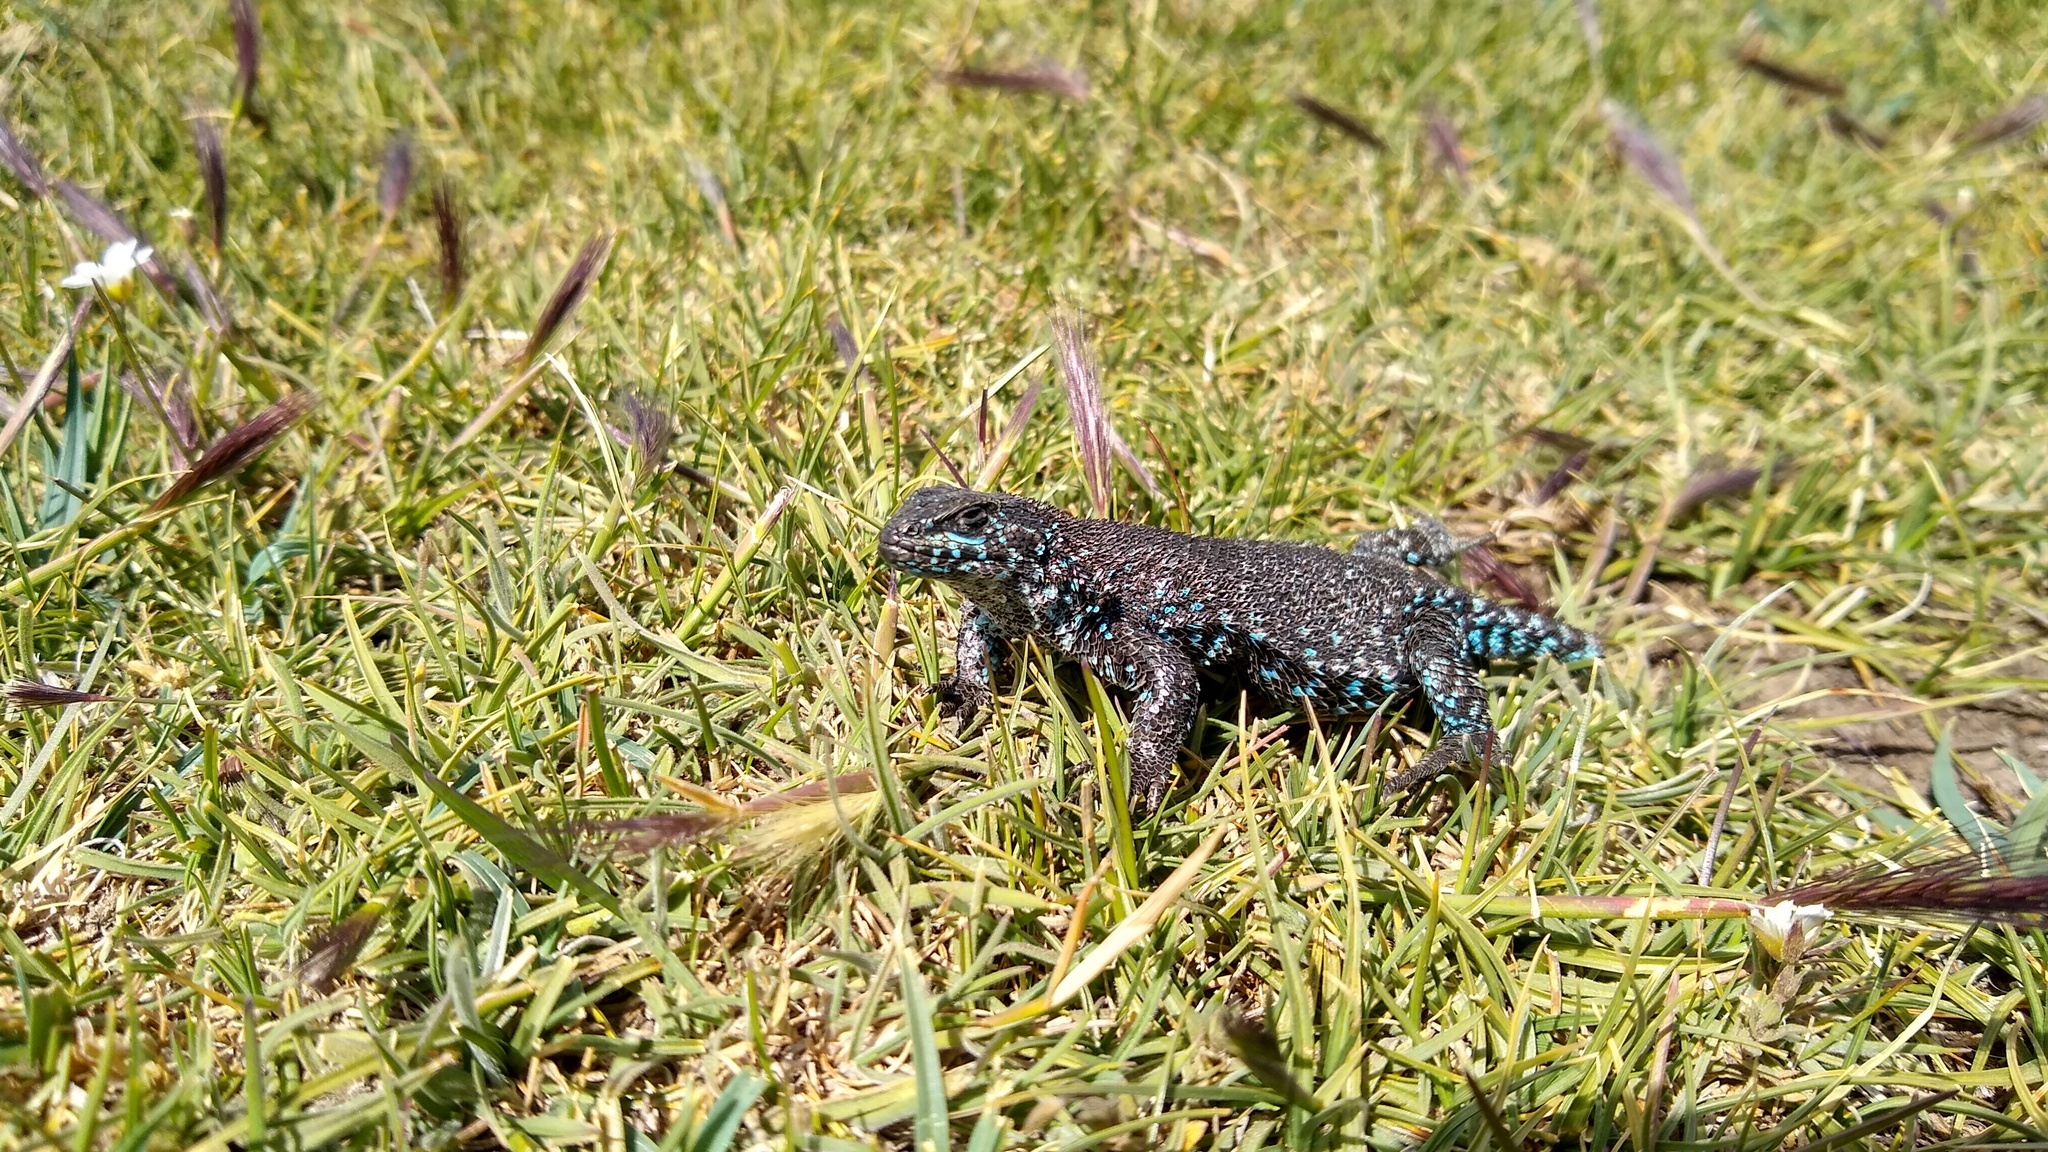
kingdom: Animalia
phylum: Chordata
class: Squamata
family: Liolaemidae
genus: Liolaemus
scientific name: Liolaemus silvanae
